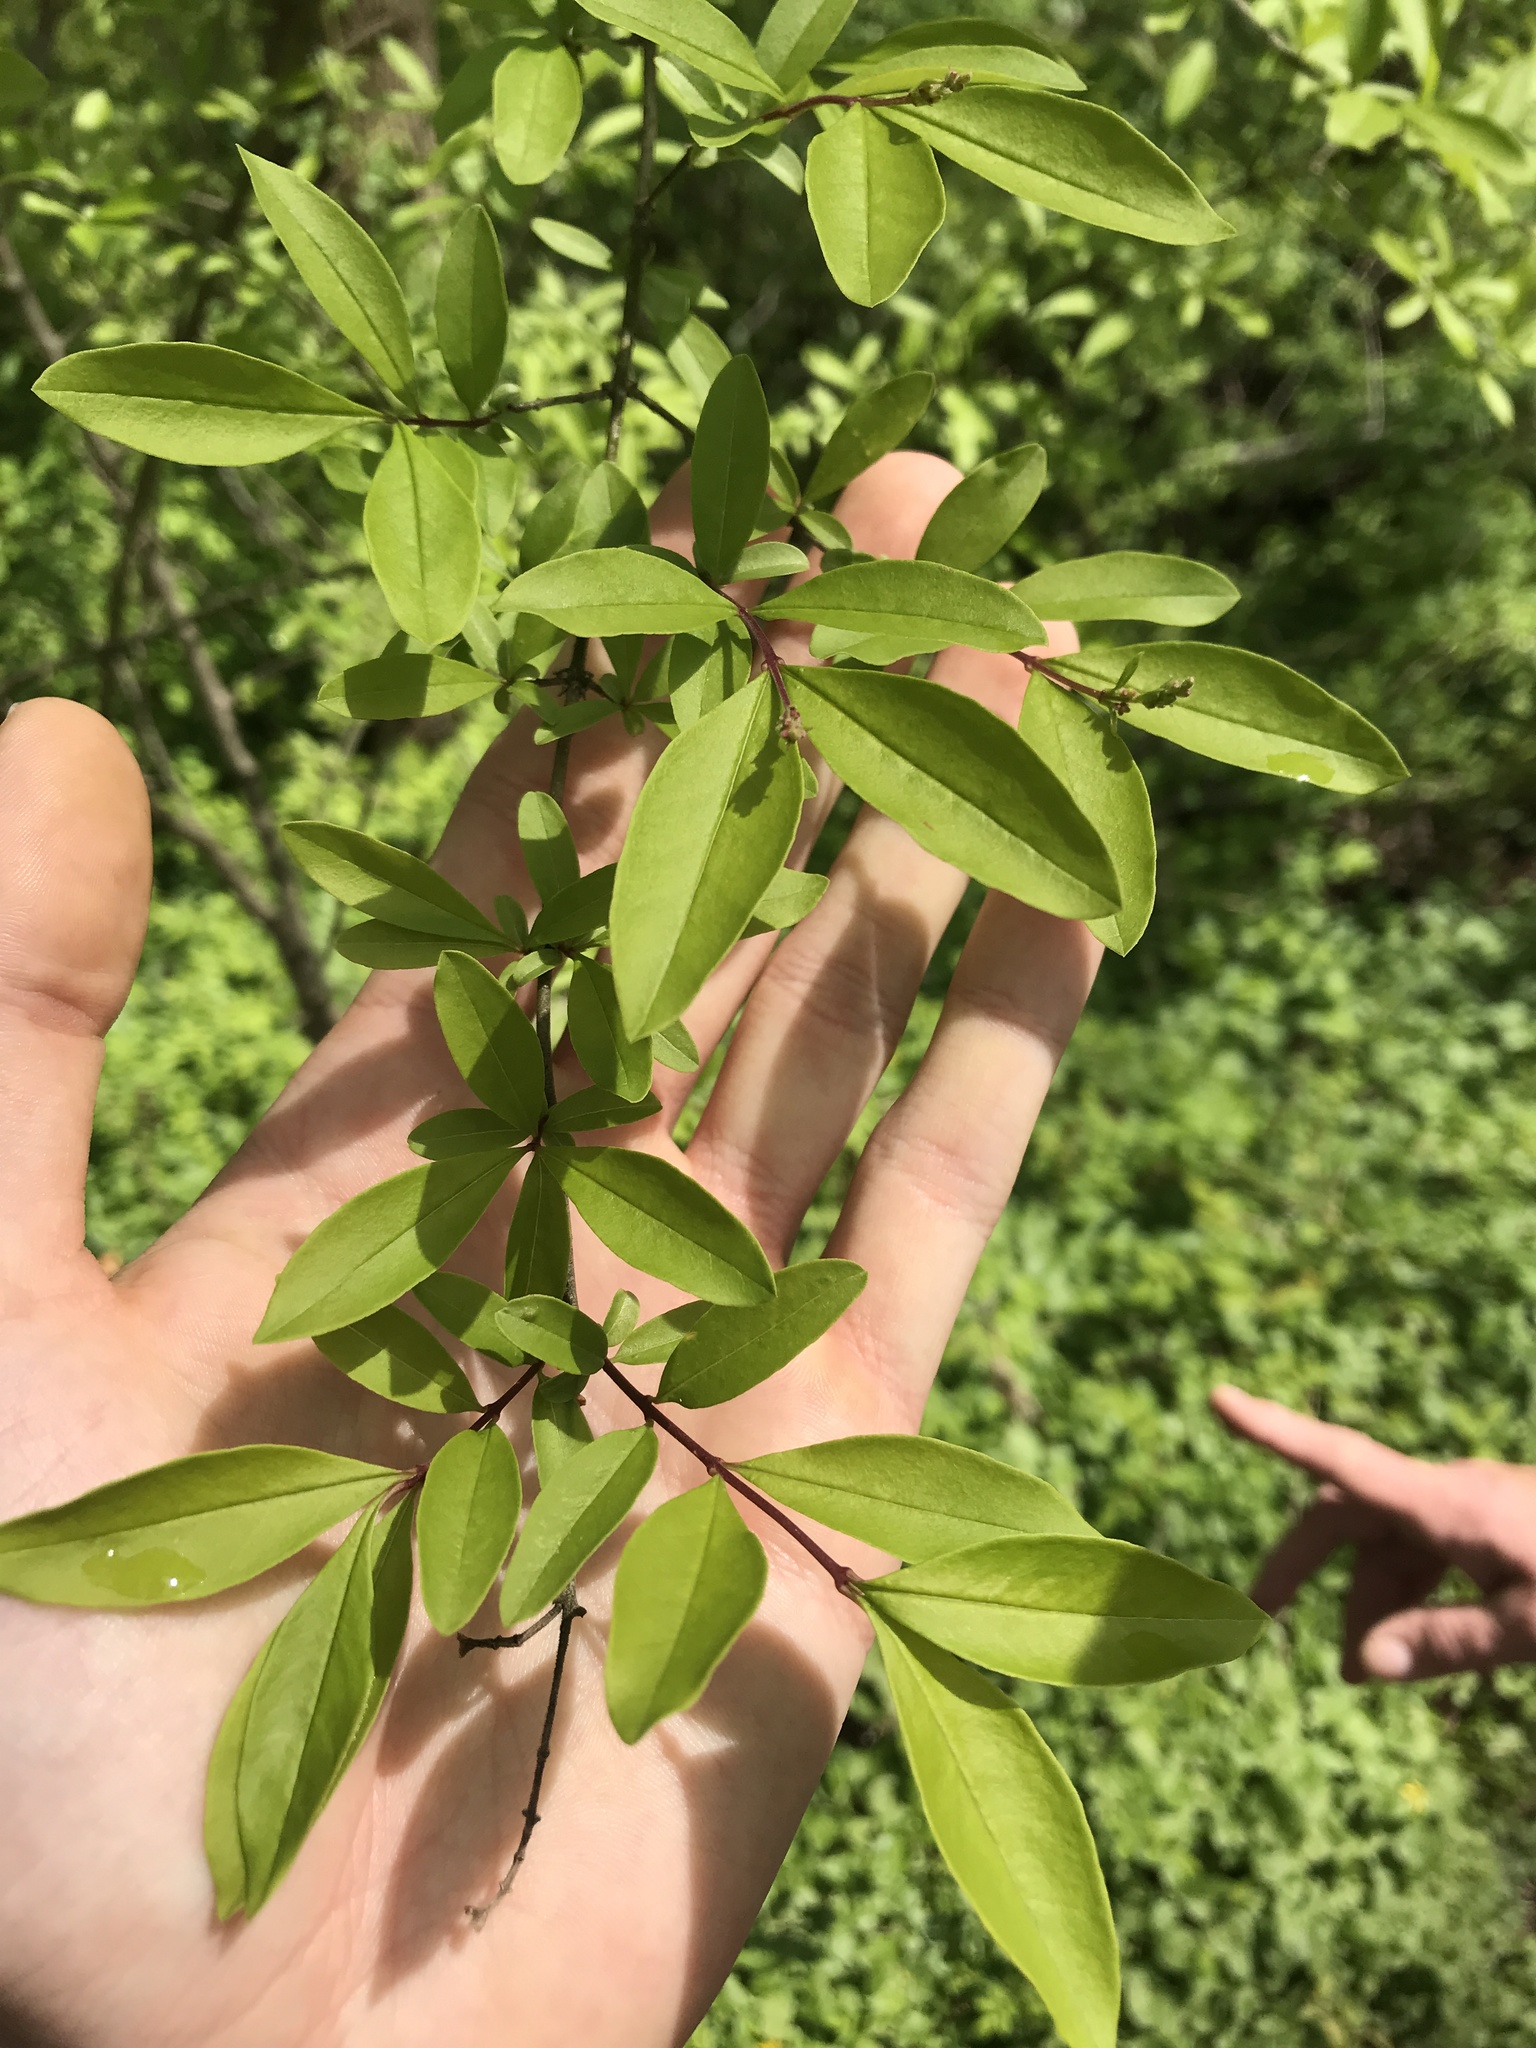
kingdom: Plantae
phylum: Tracheophyta
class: Magnoliopsida
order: Lamiales
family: Oleaceae
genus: Ligustrum
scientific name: Ligustrum obtusifolium
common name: Border privet
